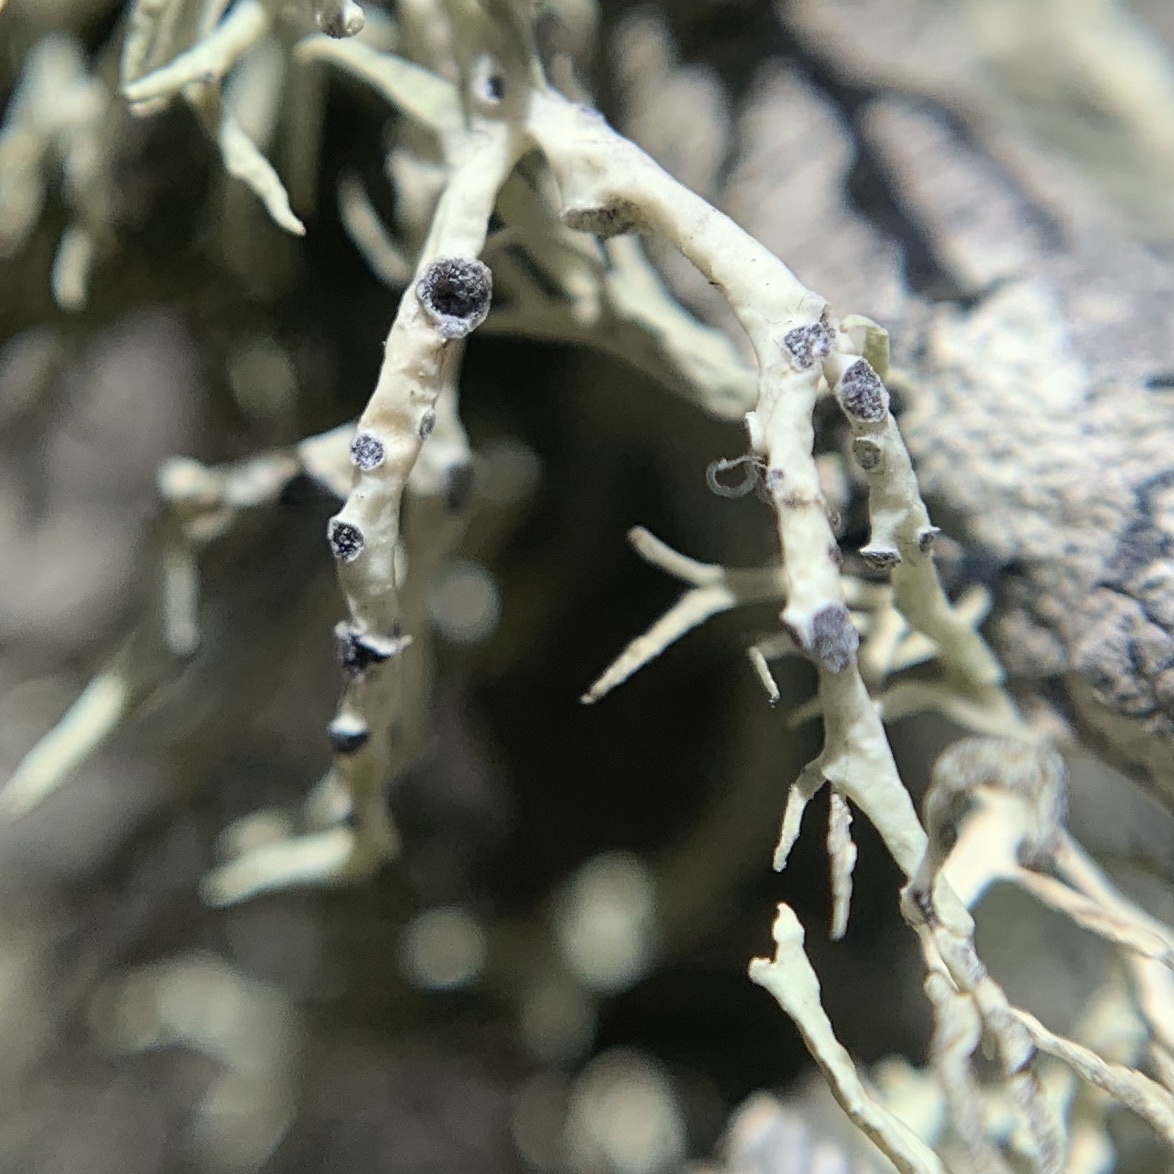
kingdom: Fungi
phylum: Ascomycota
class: Lecanoromycetes
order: Lecanorales
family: Ramalinaceae
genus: Niebla
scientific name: Niebla cephalota
